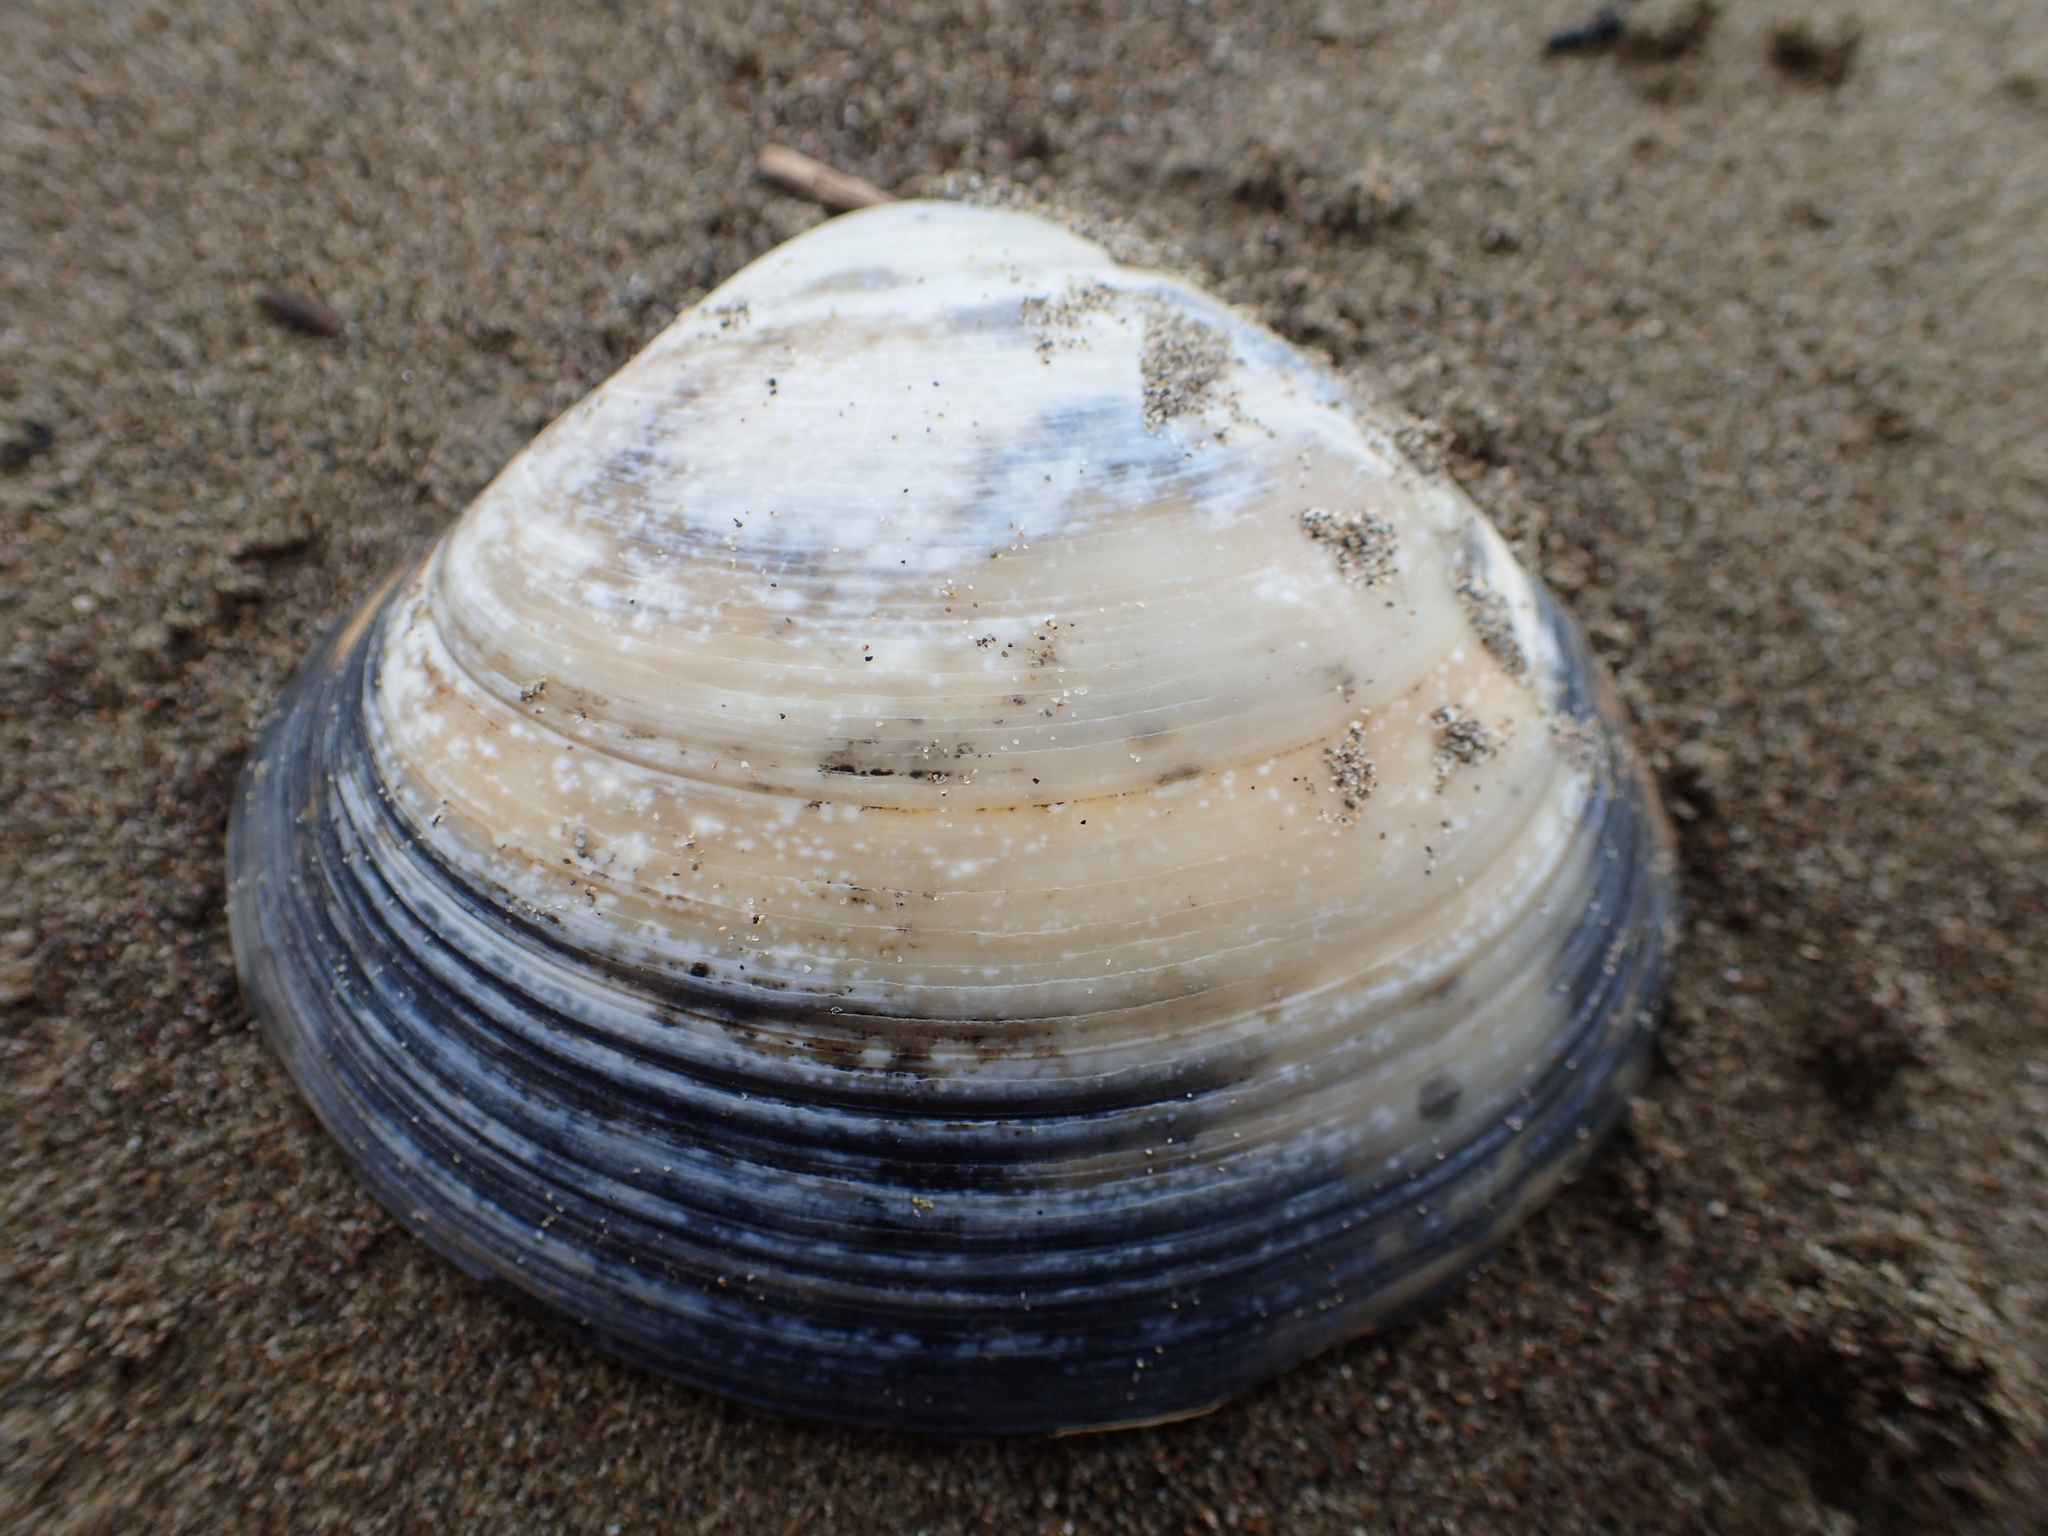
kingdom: Animalia
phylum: Mollusca
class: Bivalvia
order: Venerida
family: Mactridae
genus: Spisula
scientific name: Spisula discors
